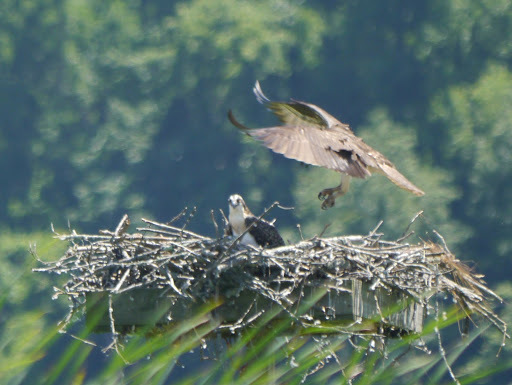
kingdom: Animalia
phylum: Chordata
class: Aves
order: Accipitriformes
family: Pandionidae
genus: Pandion
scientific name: Pandion haliaetus
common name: Osprey
